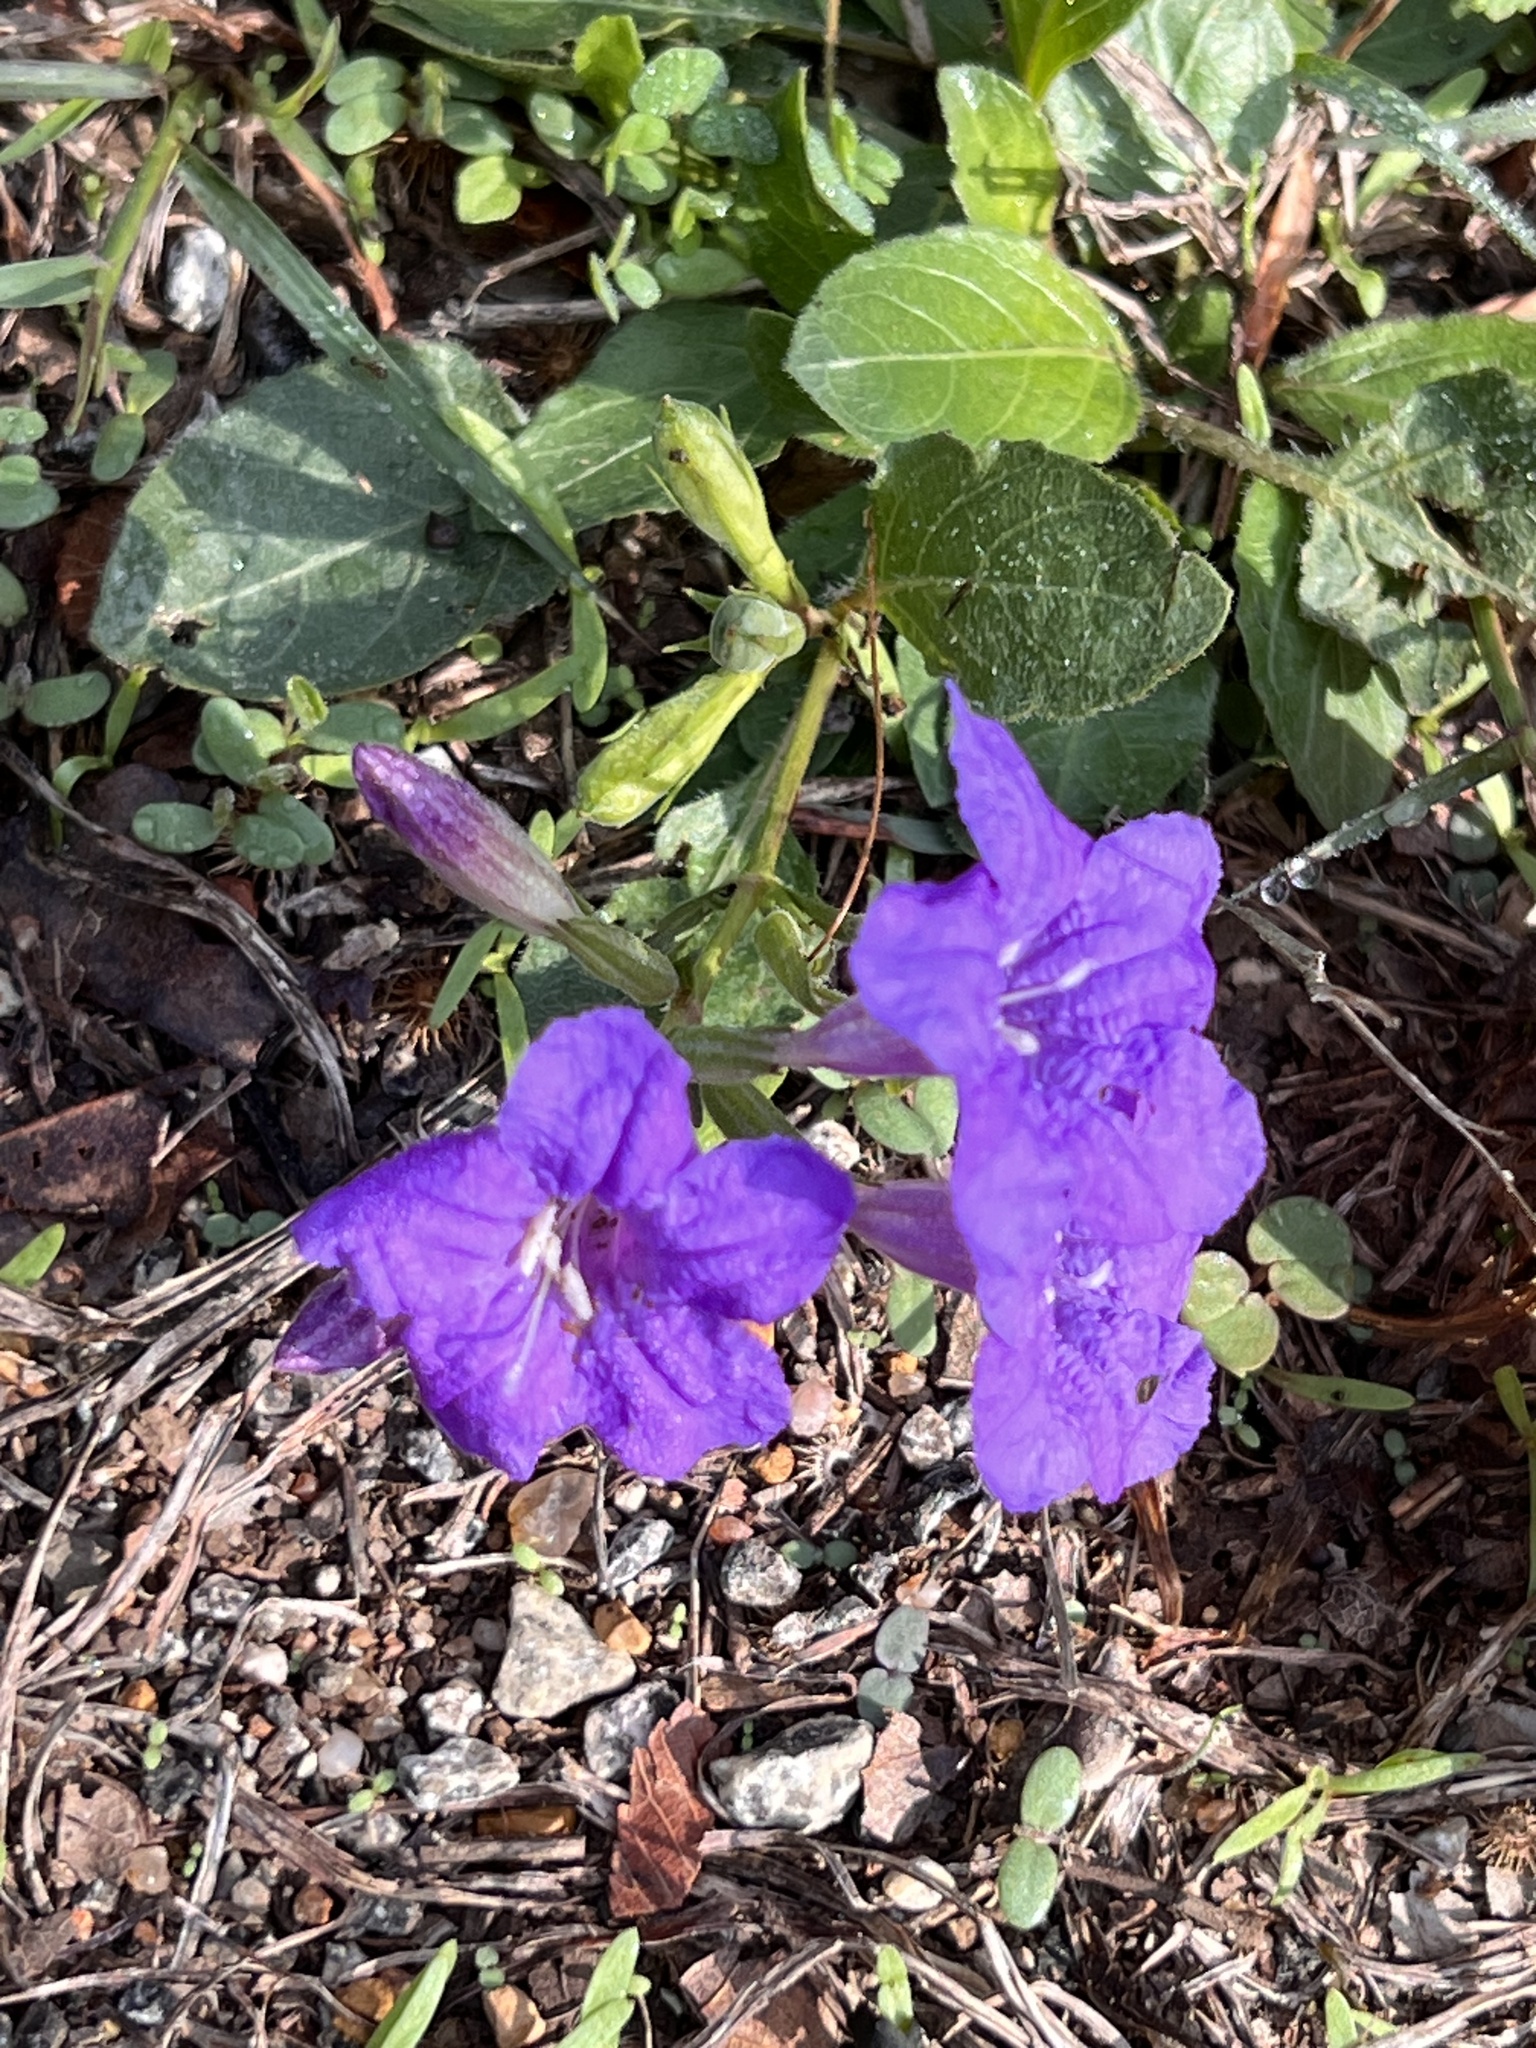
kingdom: Plantae
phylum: Tracheophyta
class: Magnoliopsida
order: Lamiales
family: Acanthaceae
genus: Ruellia
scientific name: Ruellia ciliatiflora
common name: Hairyflower wild petunia
